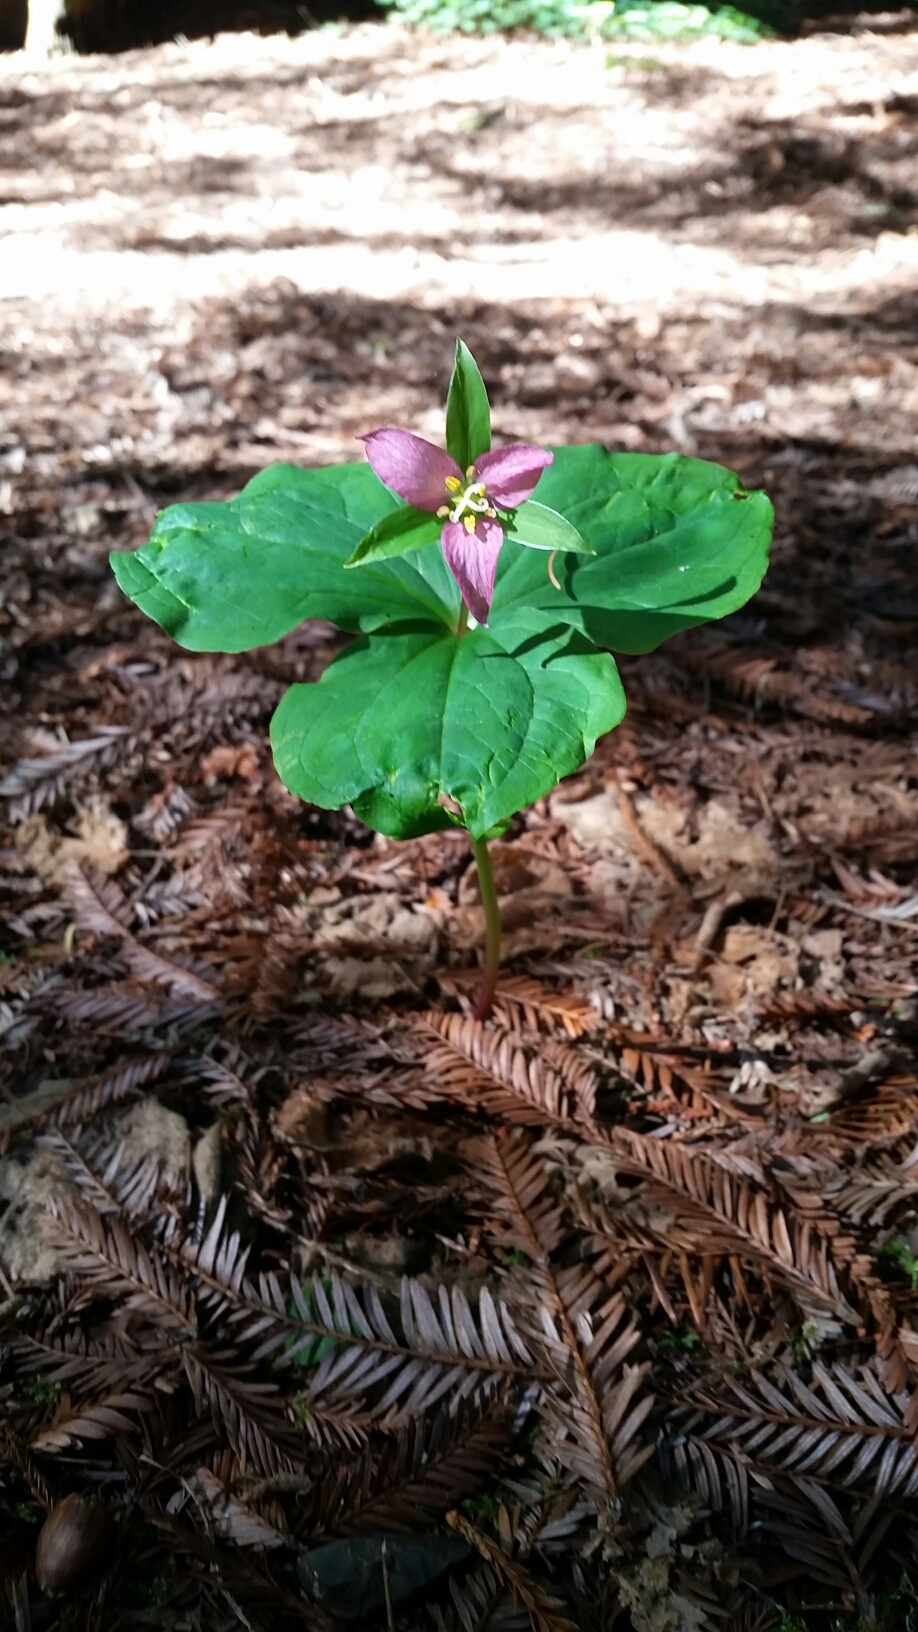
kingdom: Plantae
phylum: Tracheophyta
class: Liliopsida
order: Liliales
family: Melanthiaceae
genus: Trillium
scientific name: Trillium ovatum
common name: Pacific trillium
